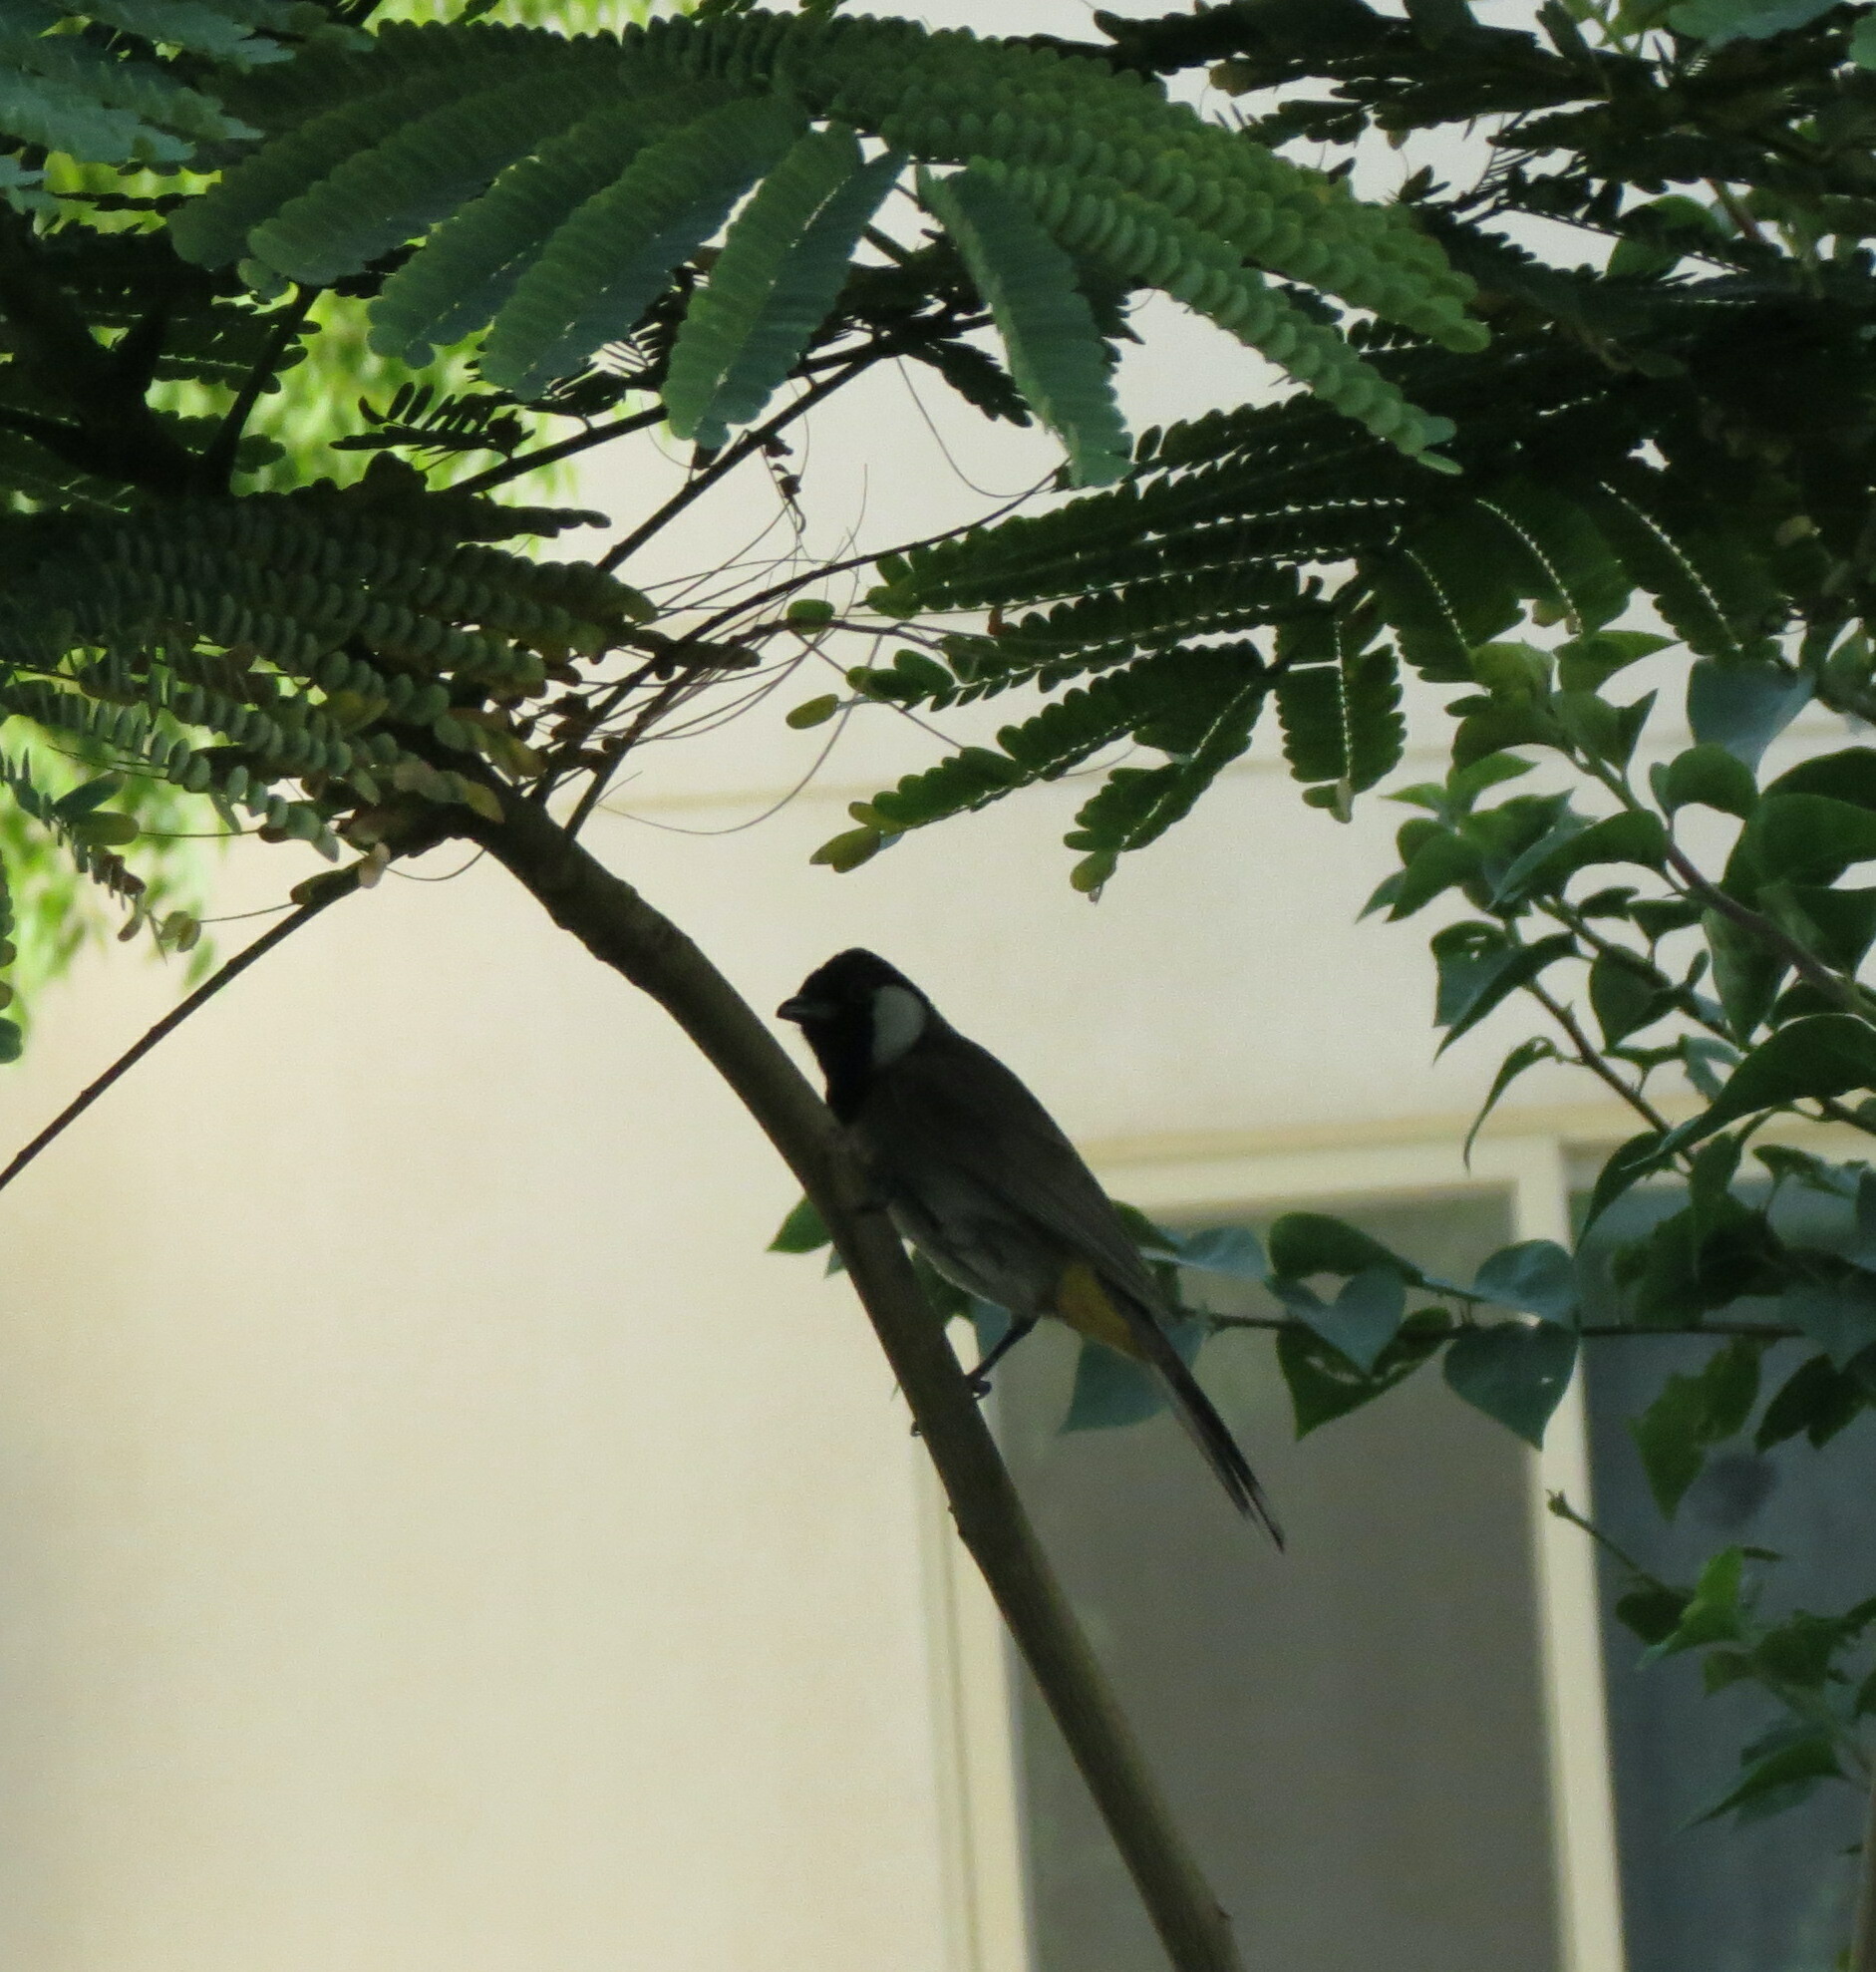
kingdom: Animalia
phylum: Chordata
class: Aves
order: Passeriformes
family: Pycnonotidae
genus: Pycnonotus
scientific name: Pycnonotus leucotis
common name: White-eared bulbul
